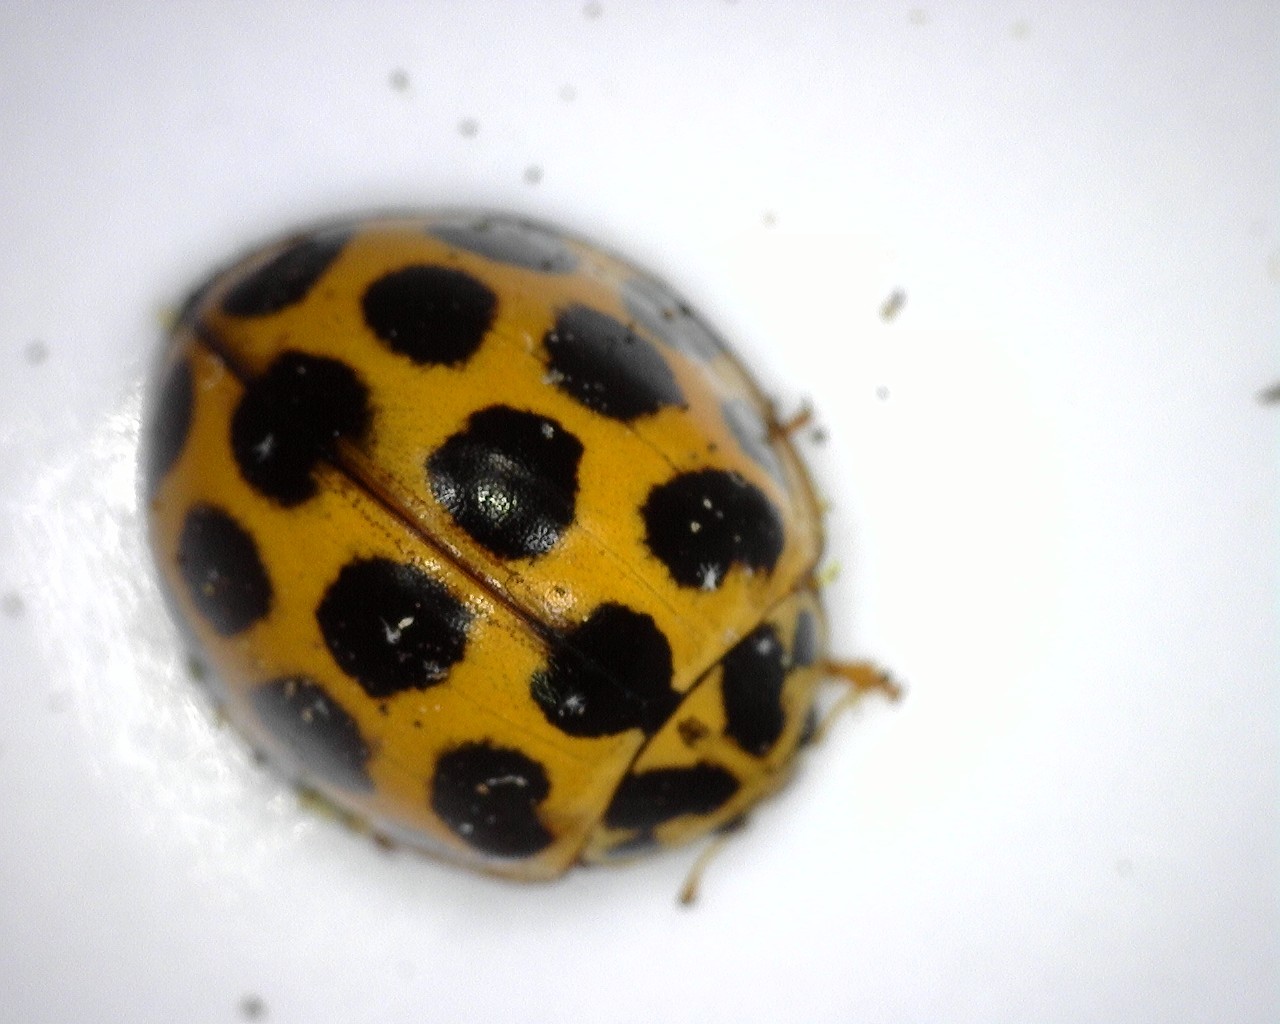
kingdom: Animalia
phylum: Arthropoda
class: Insecta
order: Coleoptera
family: Coccinellidae
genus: Harmonia
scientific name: Harmonia conformis
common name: Common spotted ladybird beetle
